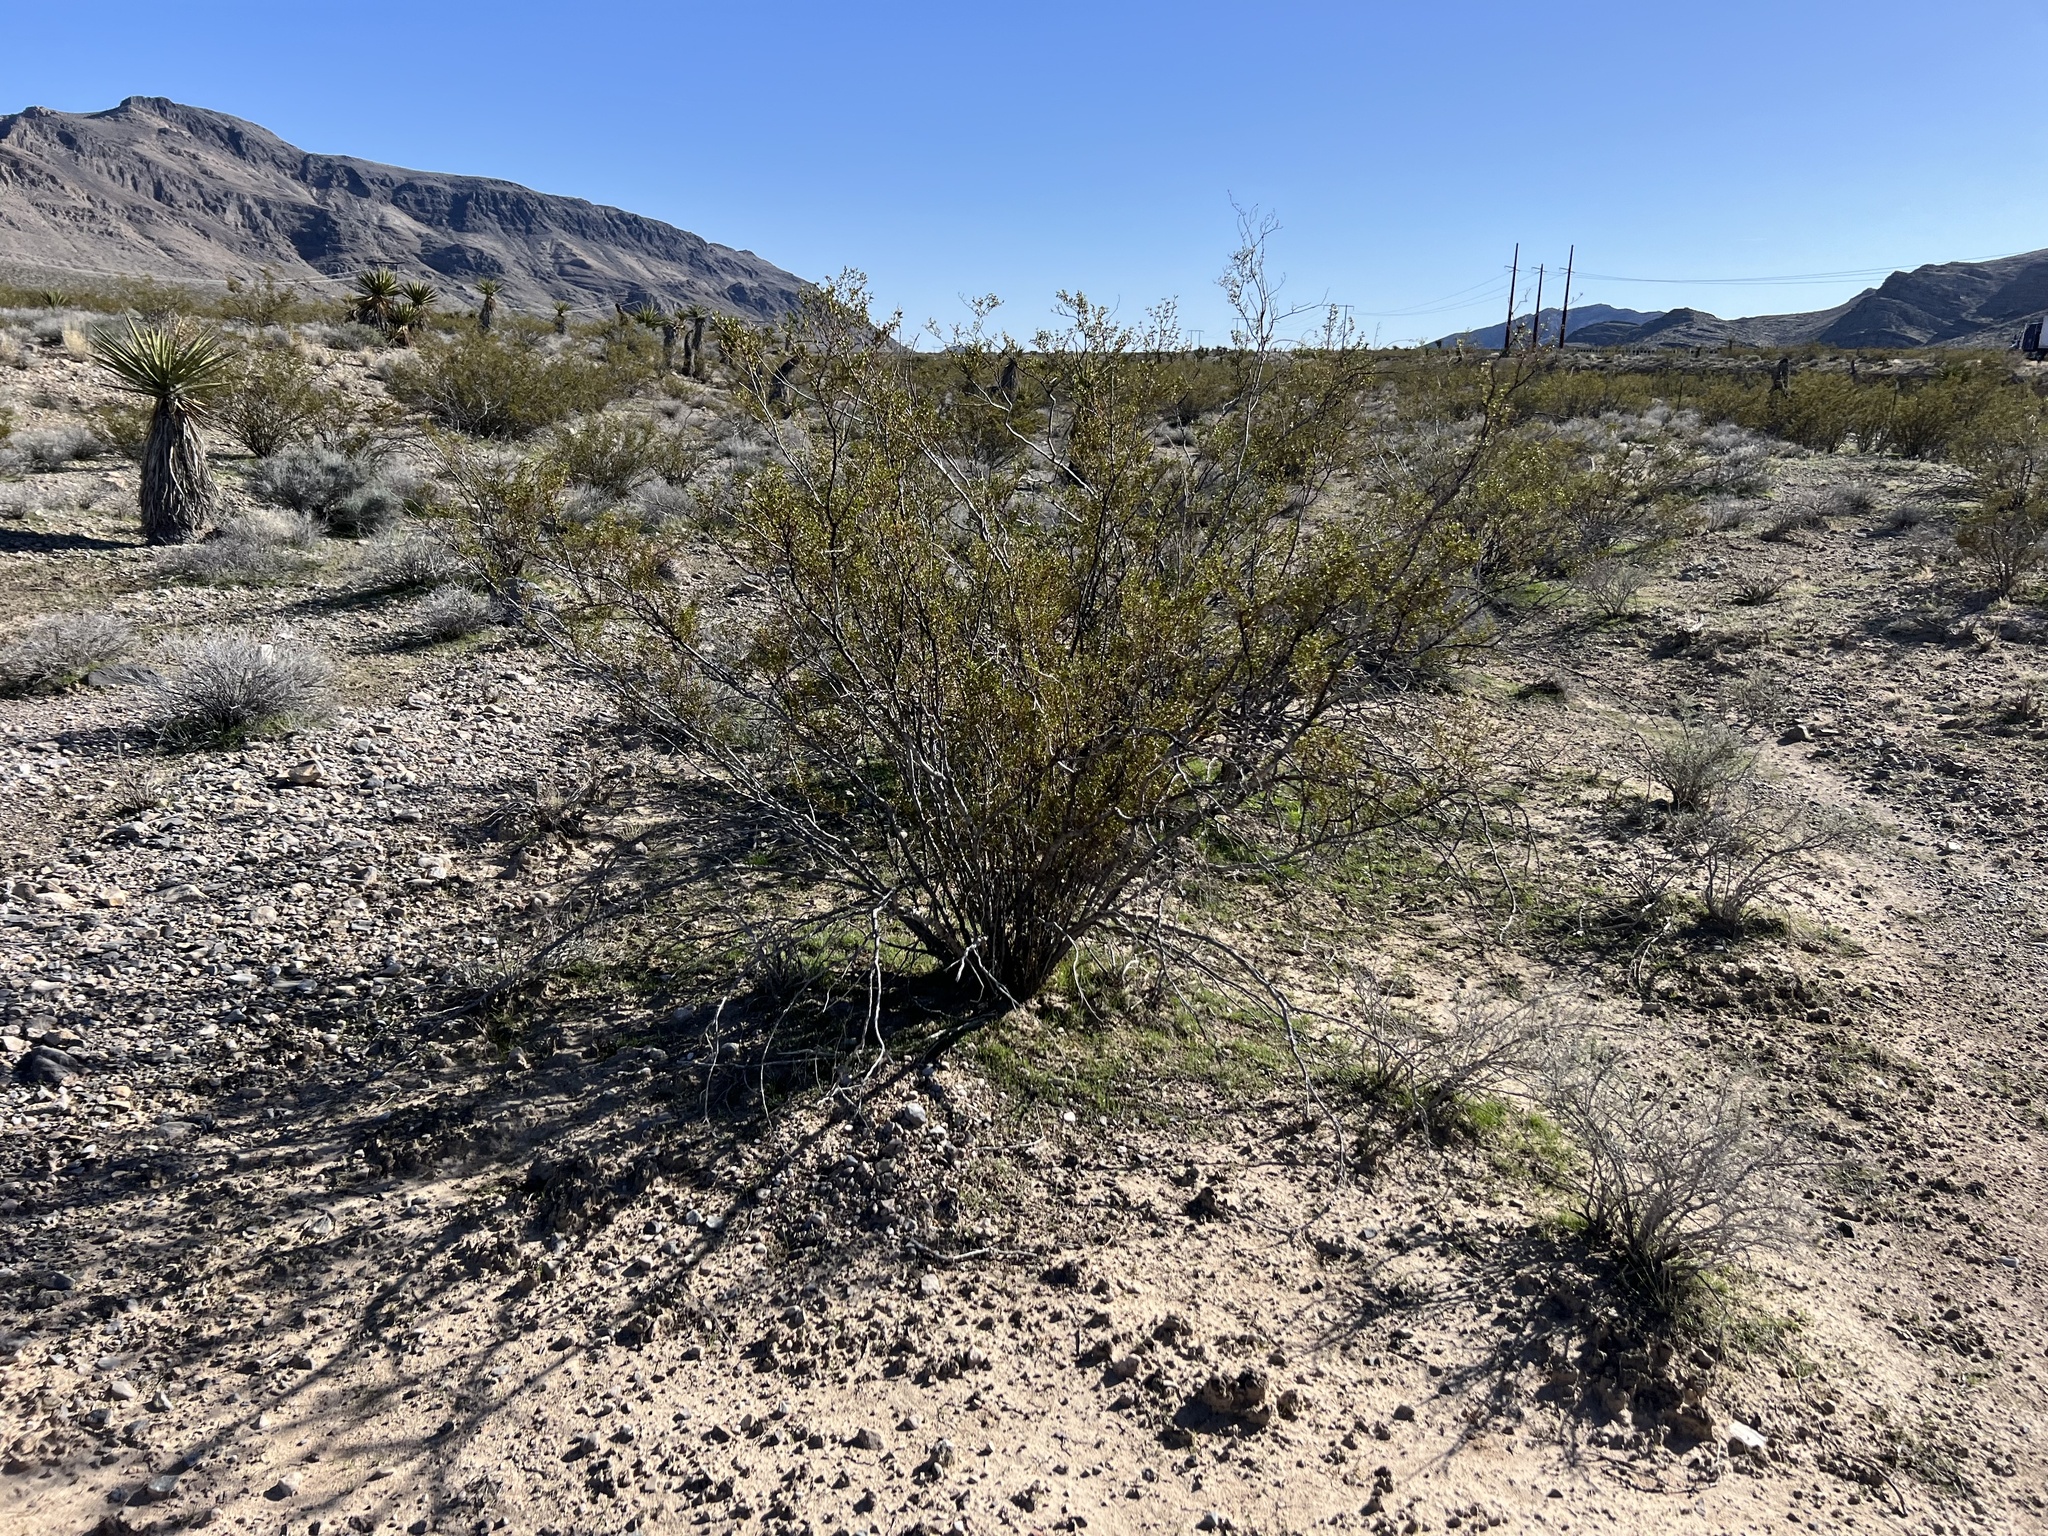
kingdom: Plantae
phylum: Tracheophyta
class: Magnoliopsida
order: Zygophyllales
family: Zygophyllaceae
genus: Larrea
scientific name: Larrea tridentata
